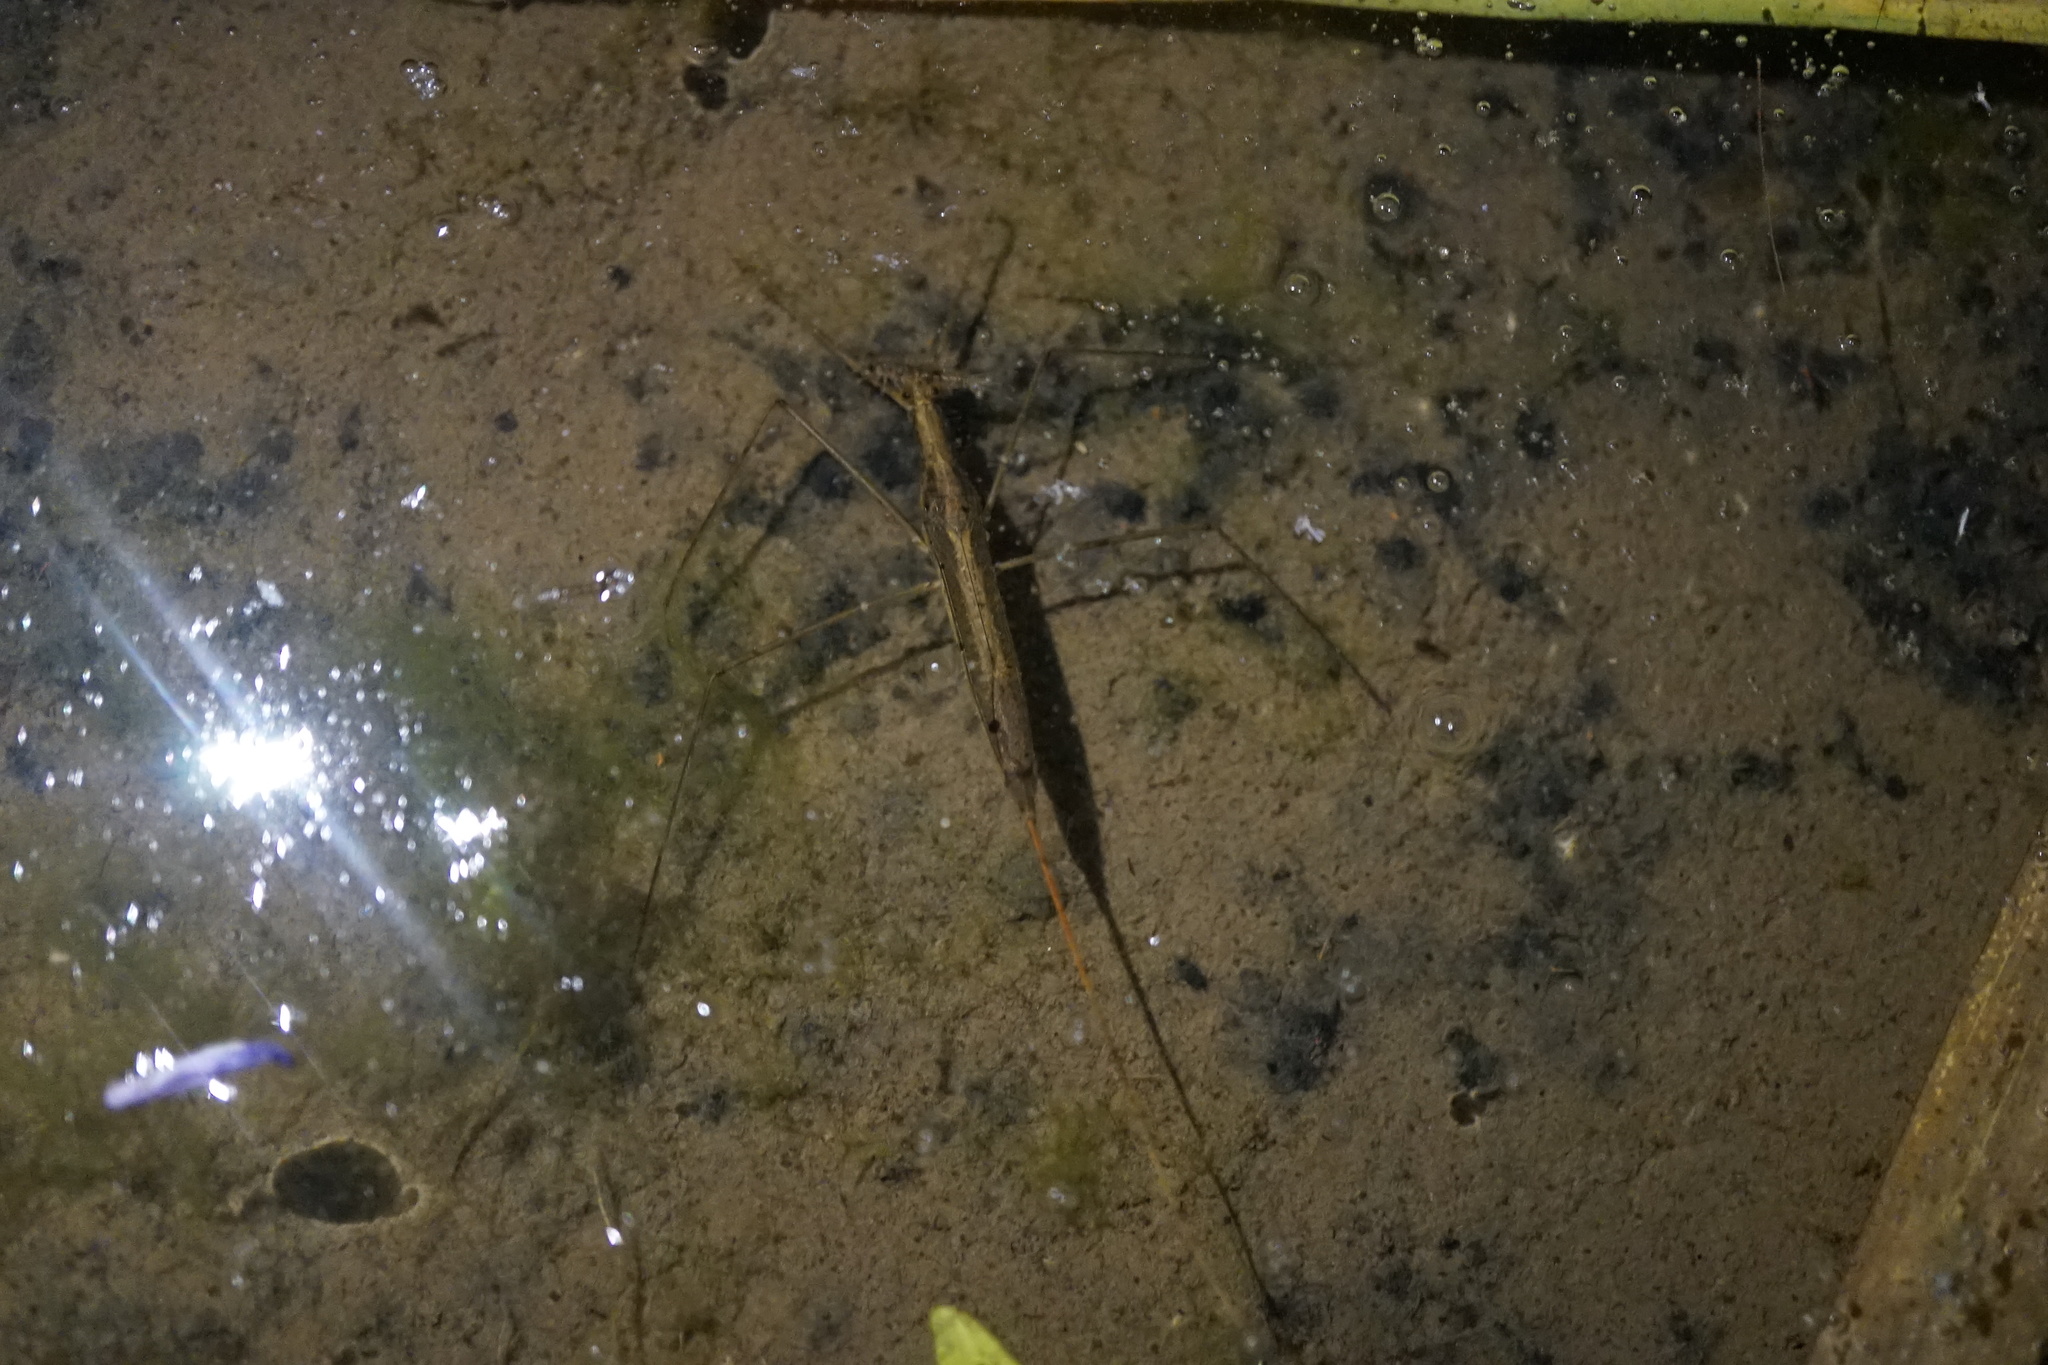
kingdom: Animalia
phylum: Arthropoda
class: Insecta
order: Hemiptera
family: Nepidae
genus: Ranatra
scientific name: Ranatra chinensis
